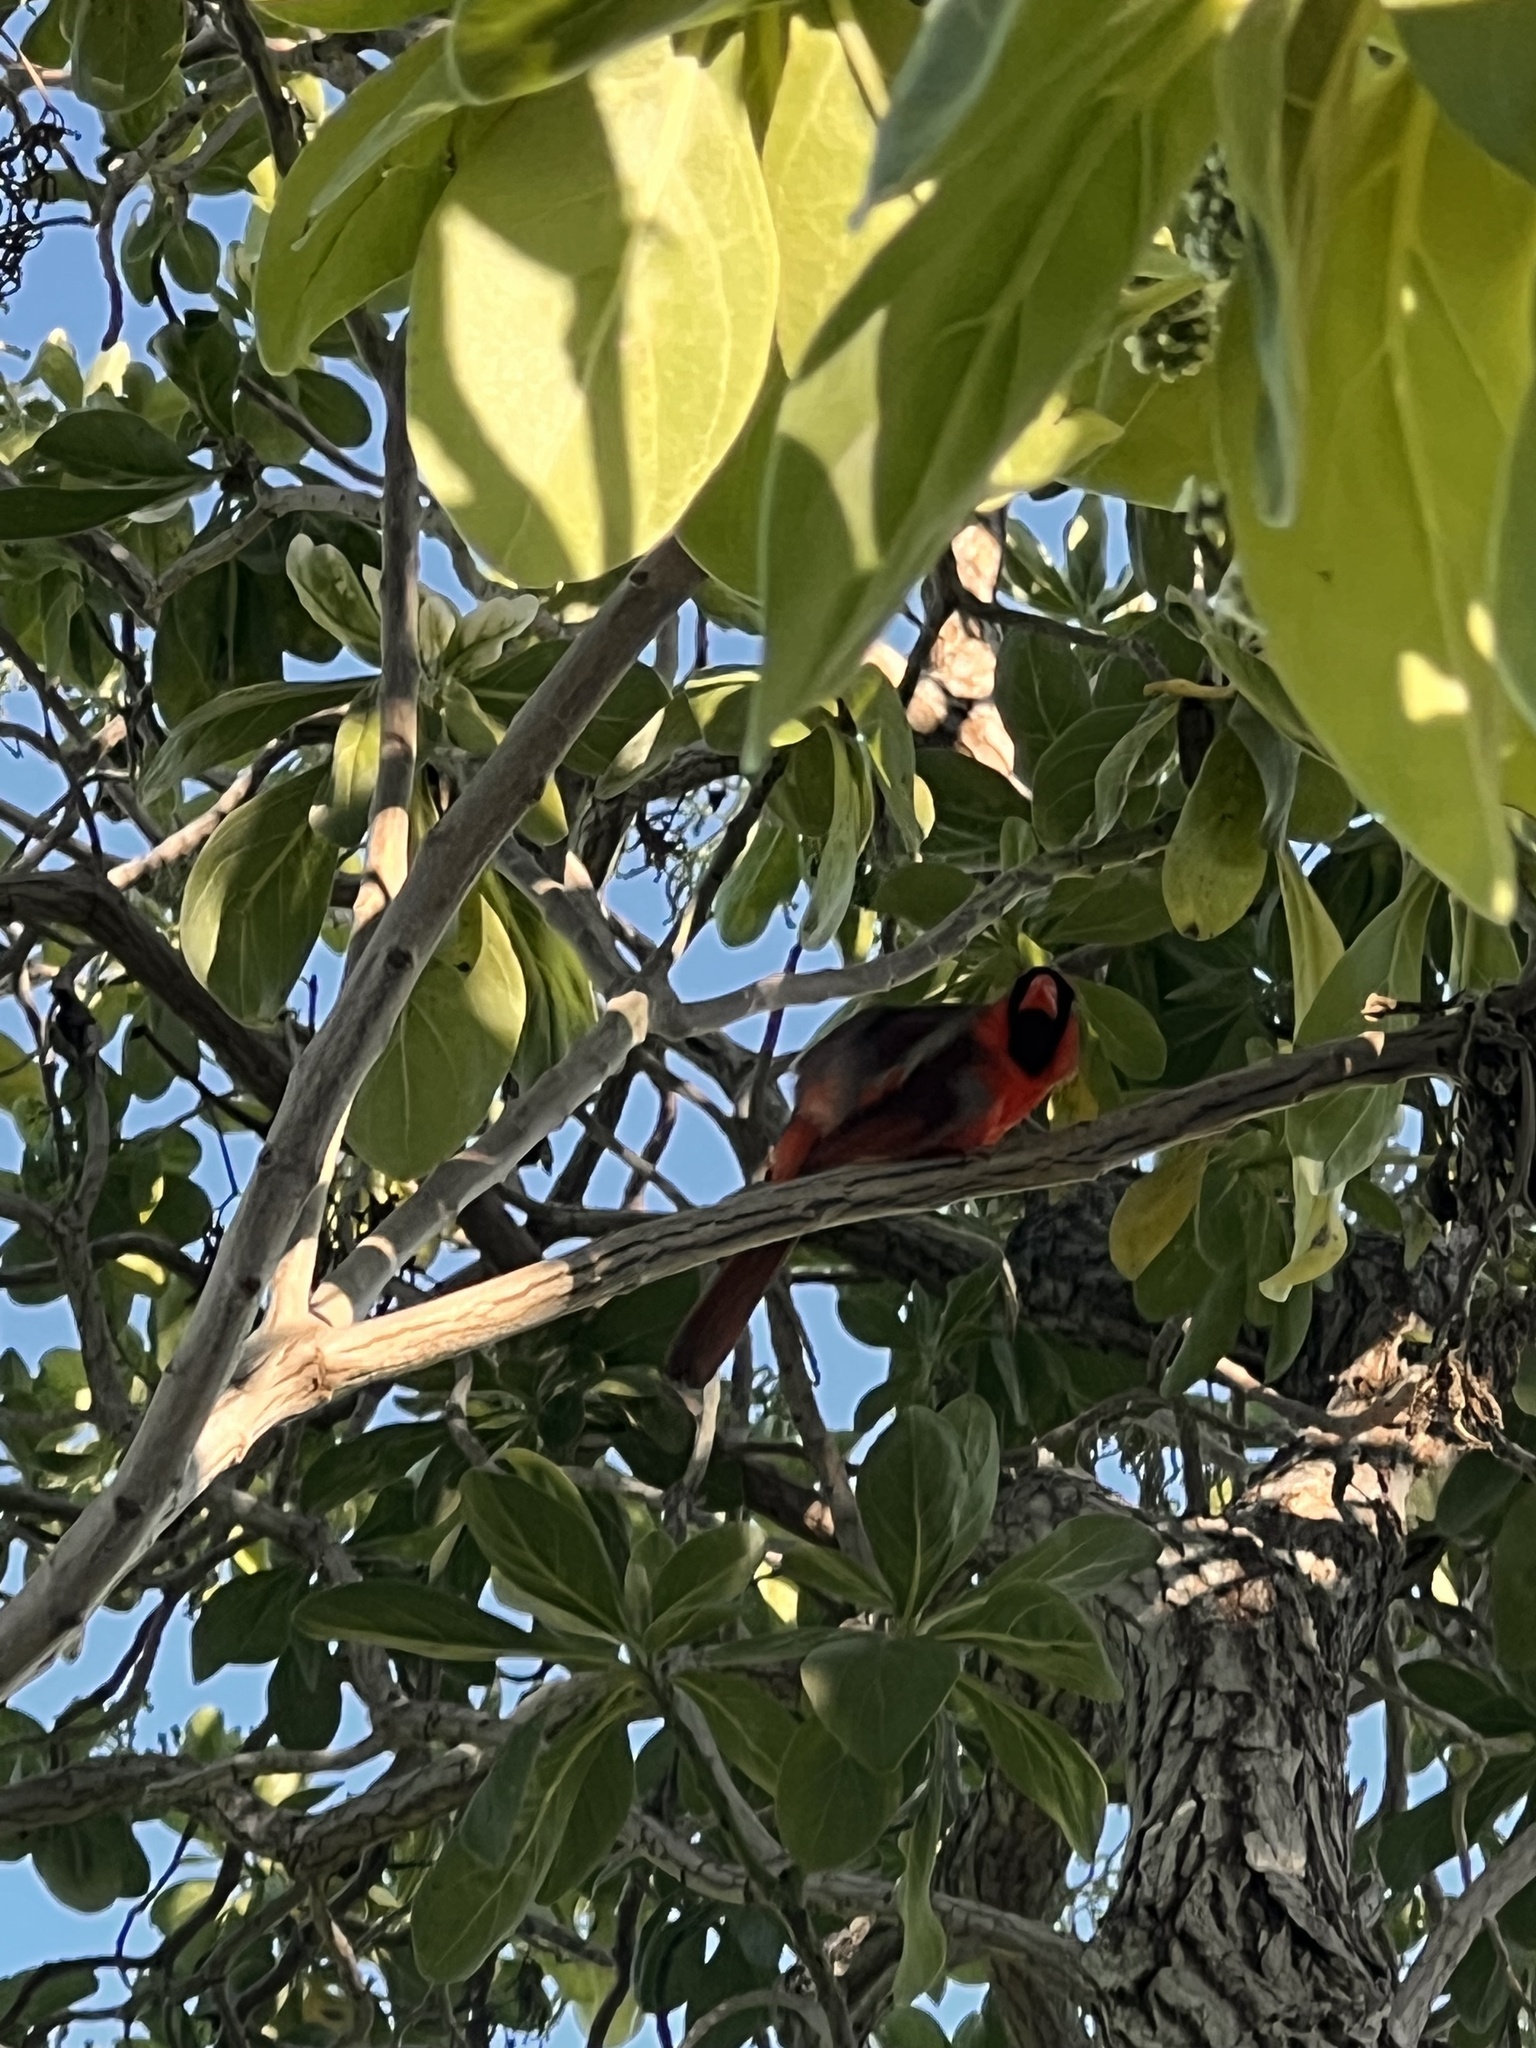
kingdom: Animalia
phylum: Chordata
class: Aves
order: Passeriformes
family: Cardinalidae
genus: Cardinalis
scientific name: Cardinalis cardinalis
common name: Northern cardinal
